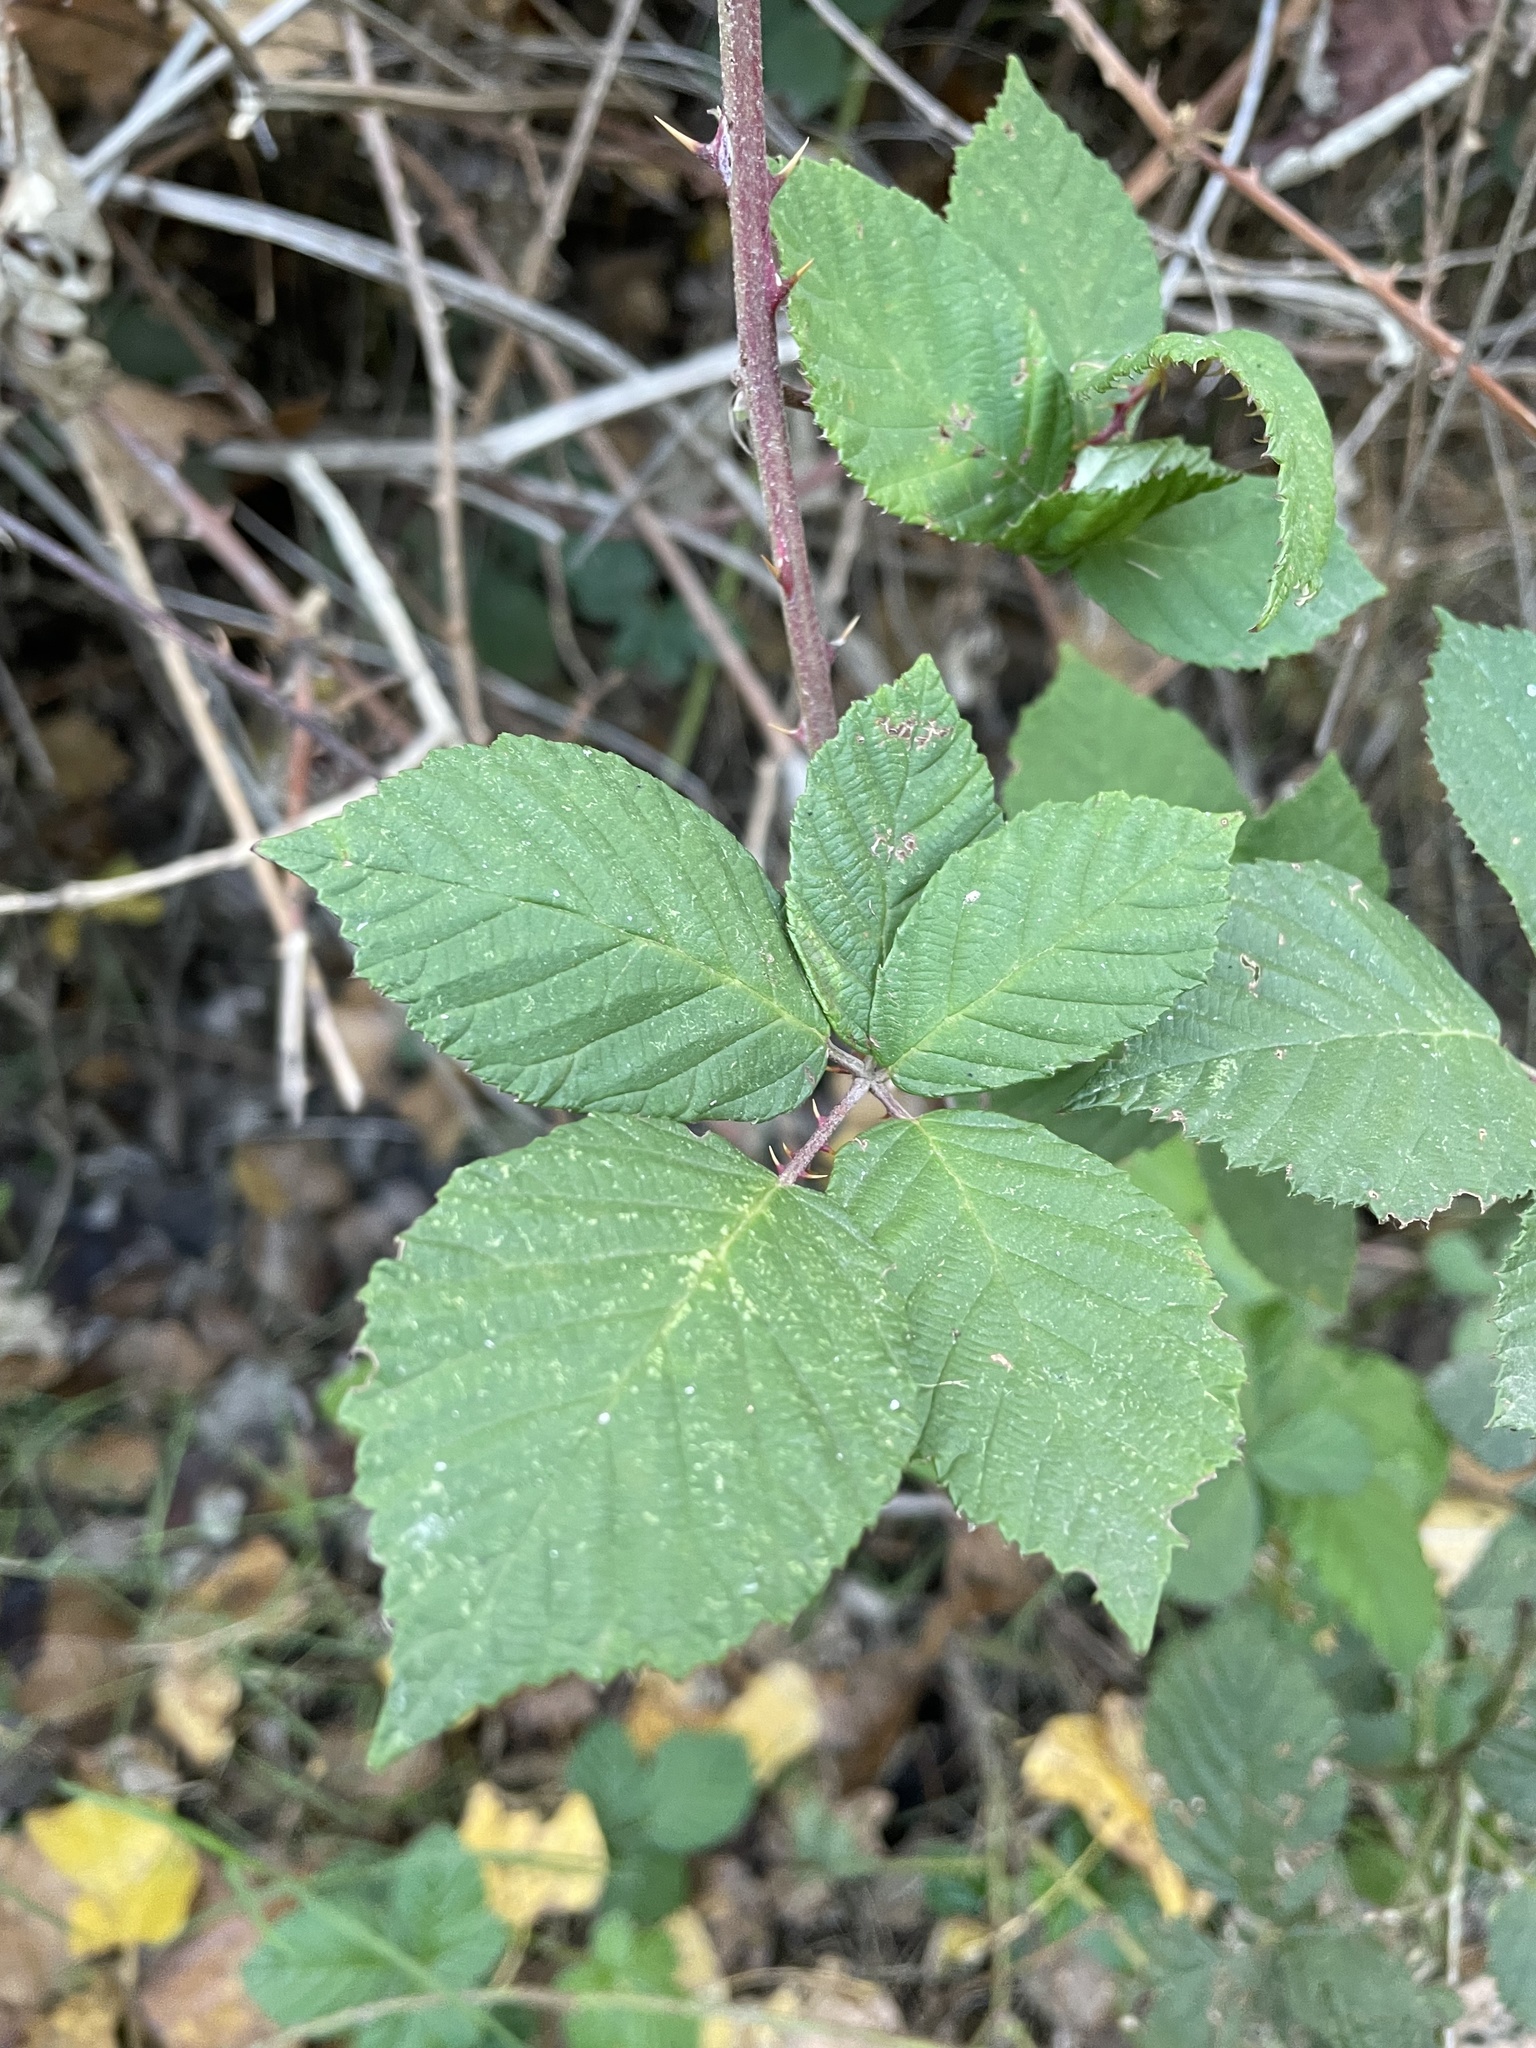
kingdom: Plantae
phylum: Tracheophyta
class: Magnoliopsida
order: Rosales
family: Rosaceae
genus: Rubus
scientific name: Rubus armeniacus
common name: Himalayan blackberry
